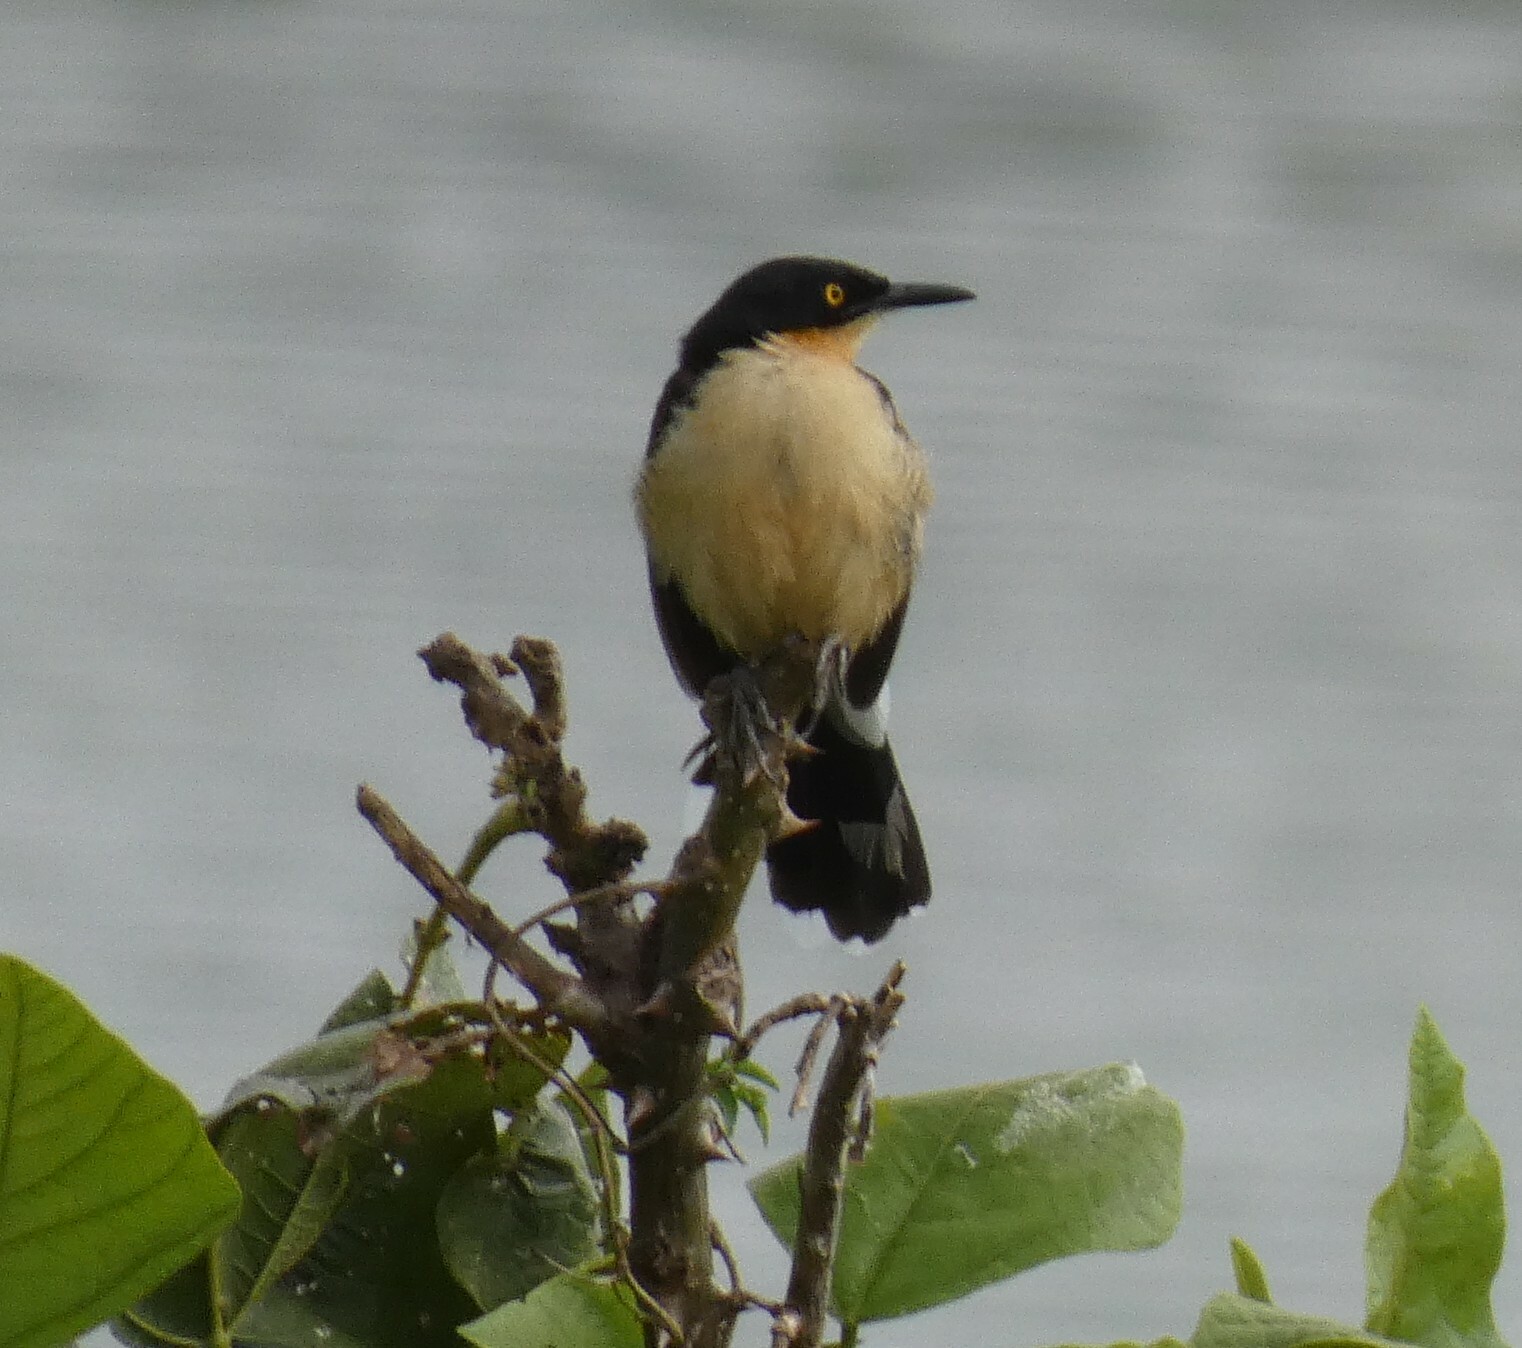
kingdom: Animalia
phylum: Chordata
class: Aves
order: Passeriformes
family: Donacobiidae
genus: Donacobius
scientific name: Donacobius atricapilla
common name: Black-capped donacobius
